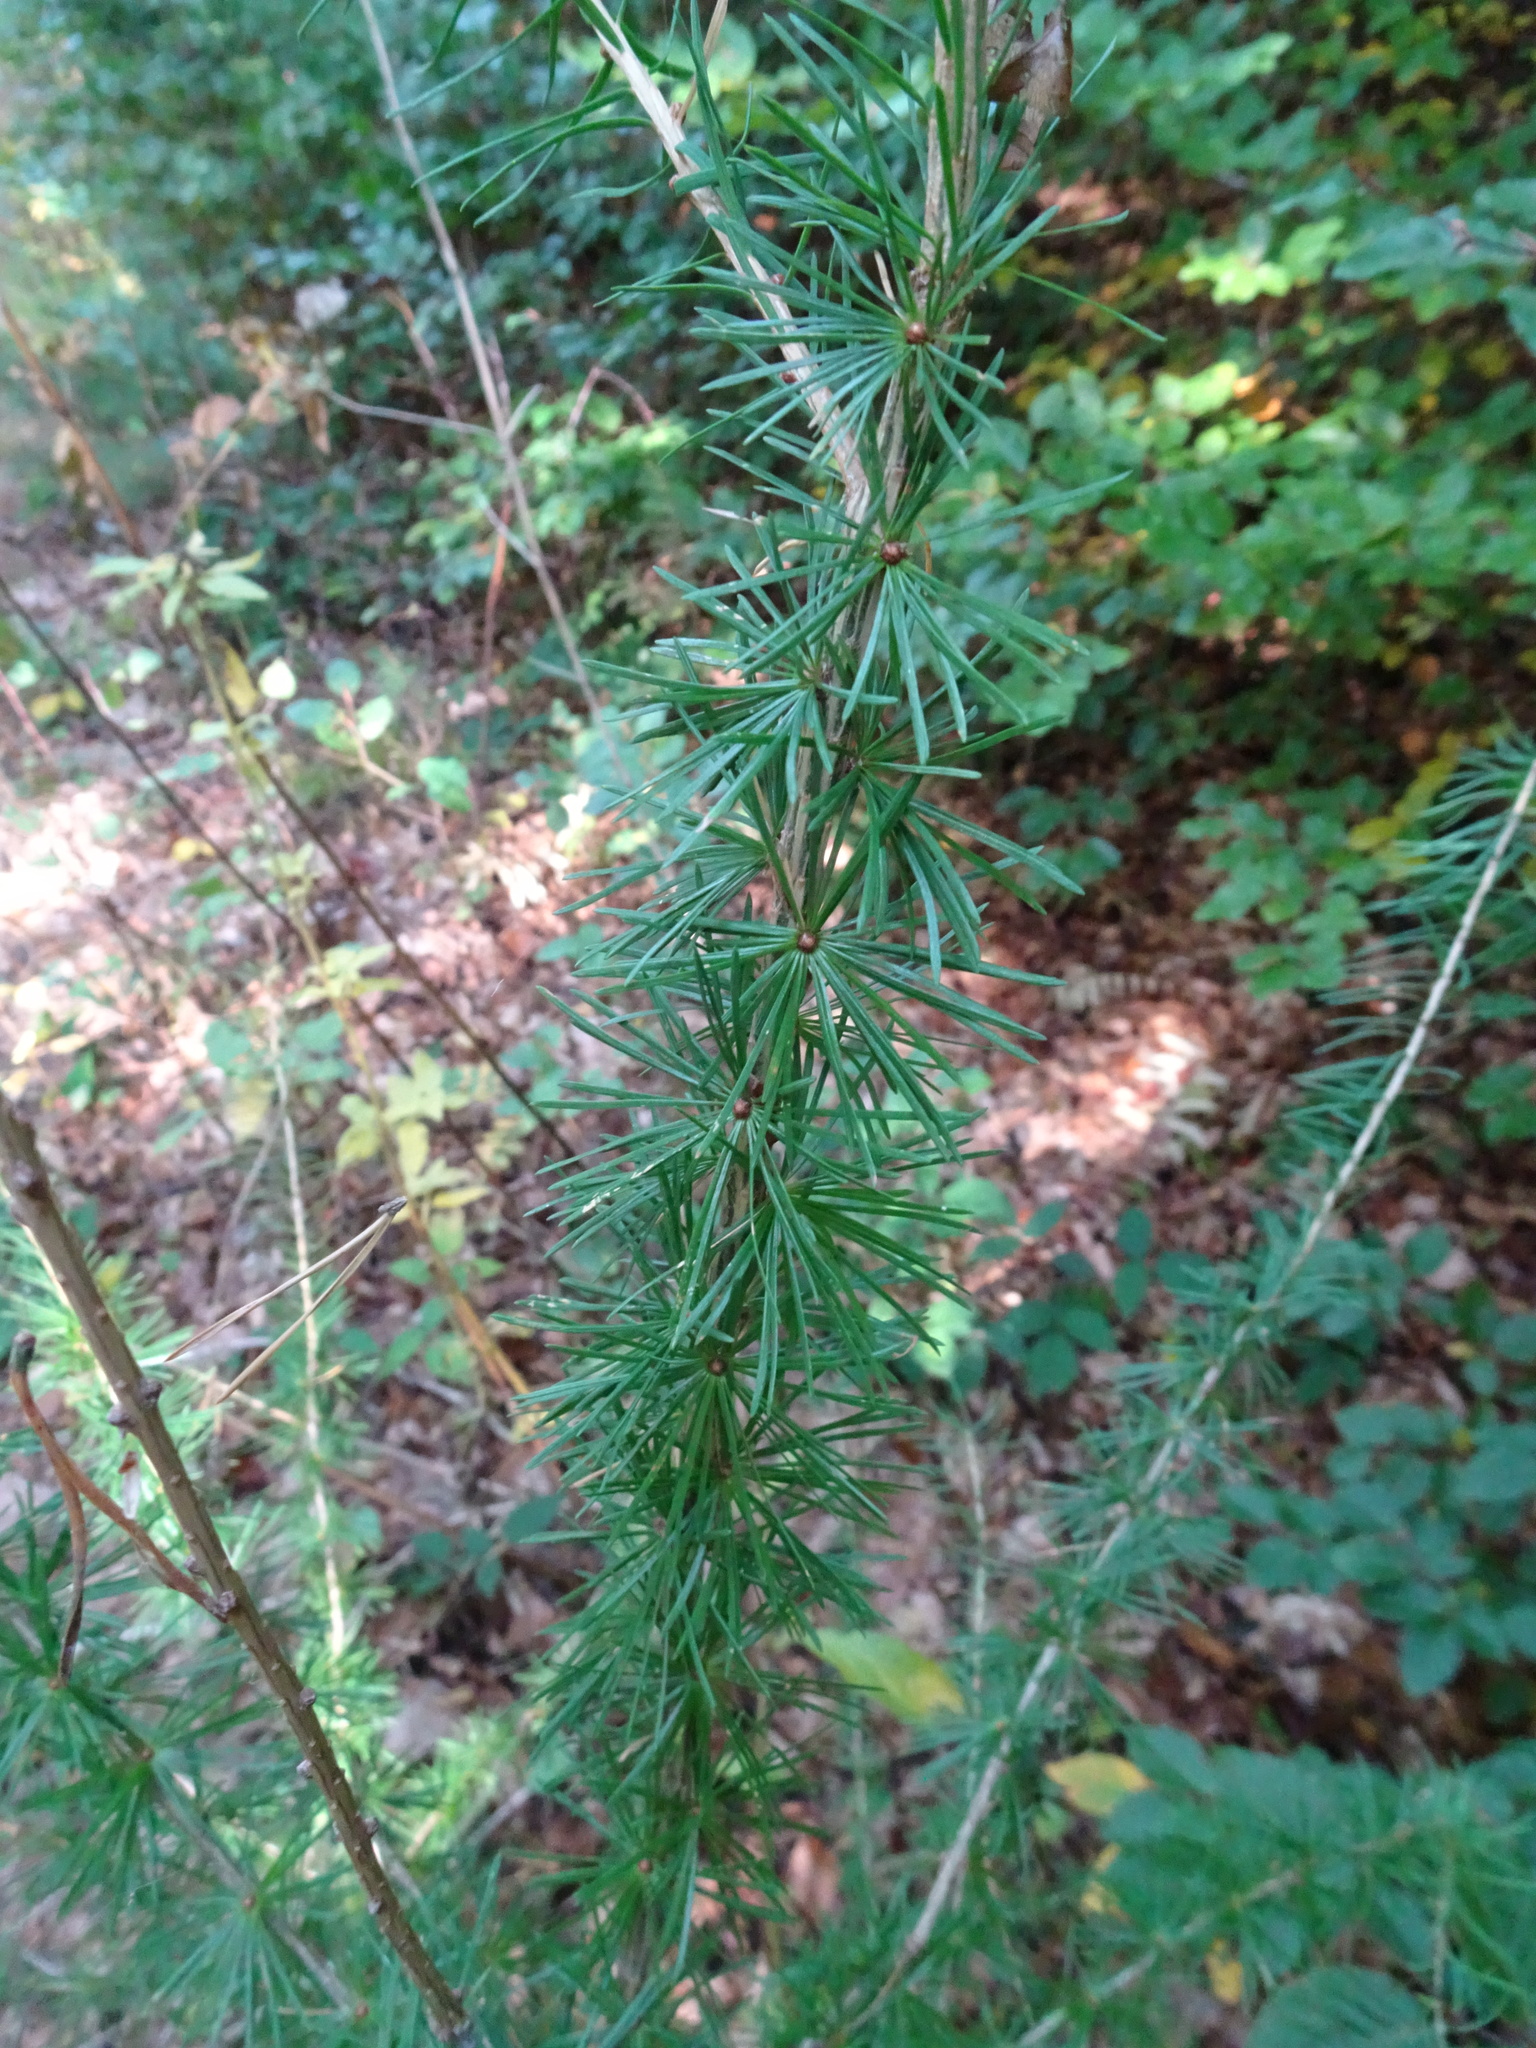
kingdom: Plantae
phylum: Tracheophyta
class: Pinopsida
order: Pinales
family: Pinaceae
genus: Larix
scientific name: Larix decidua
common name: European larch
